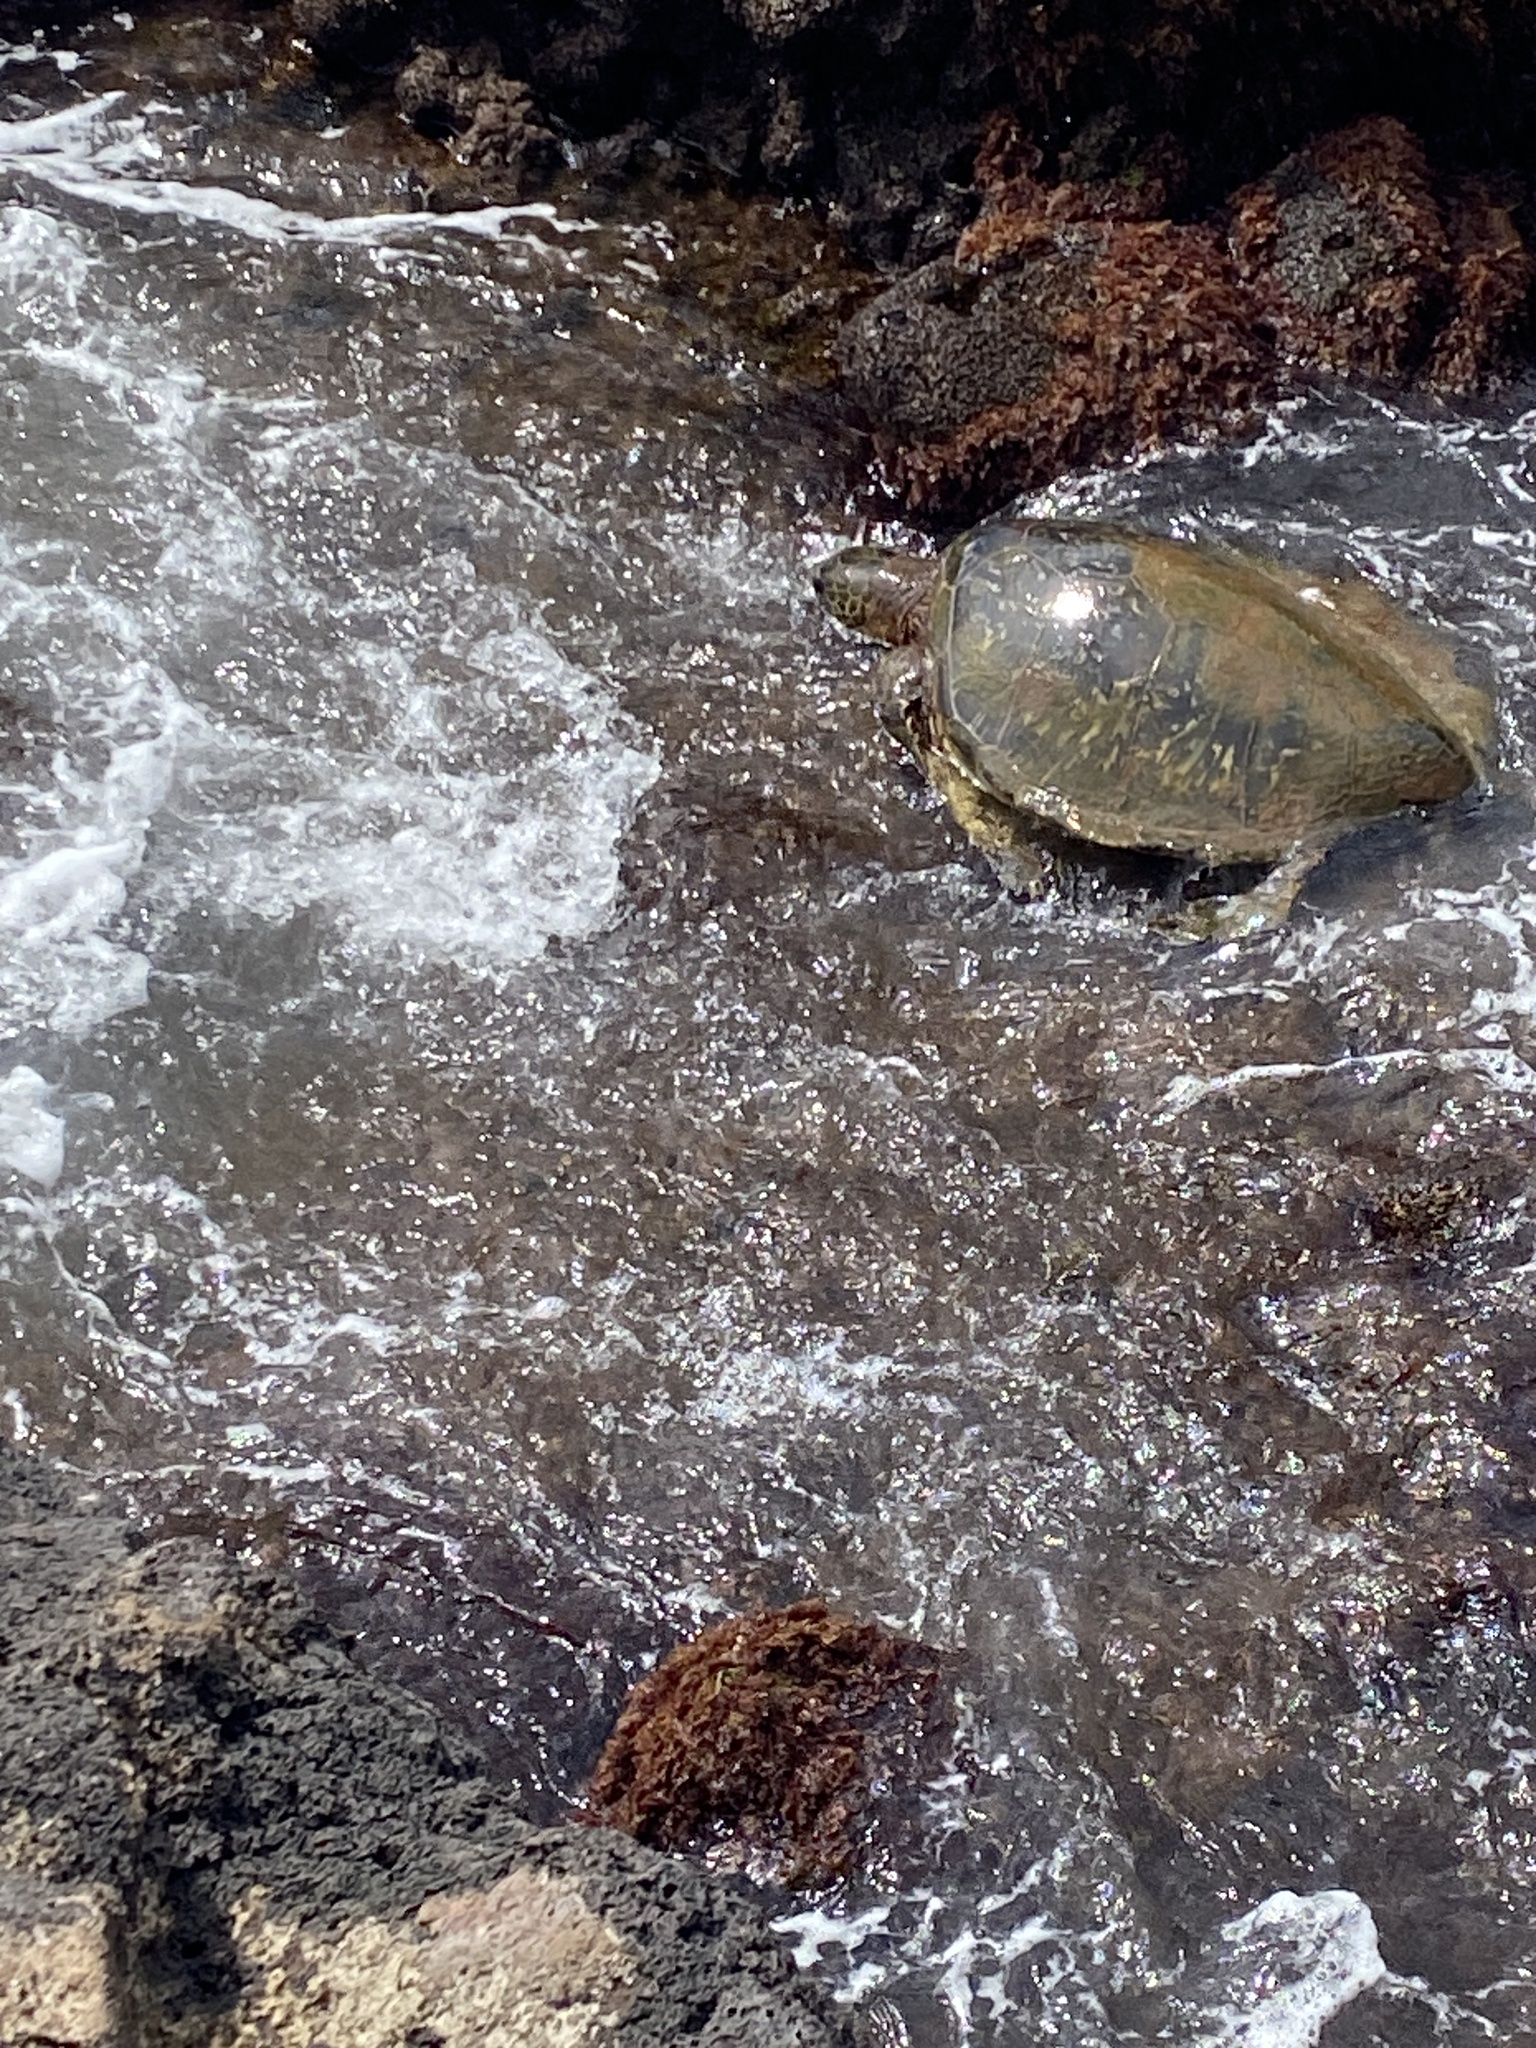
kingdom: Animalia
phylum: Chordata
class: Testudines
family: Cheloniidae
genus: Chelonia
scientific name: Chelonia mydas
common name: Green turtle
